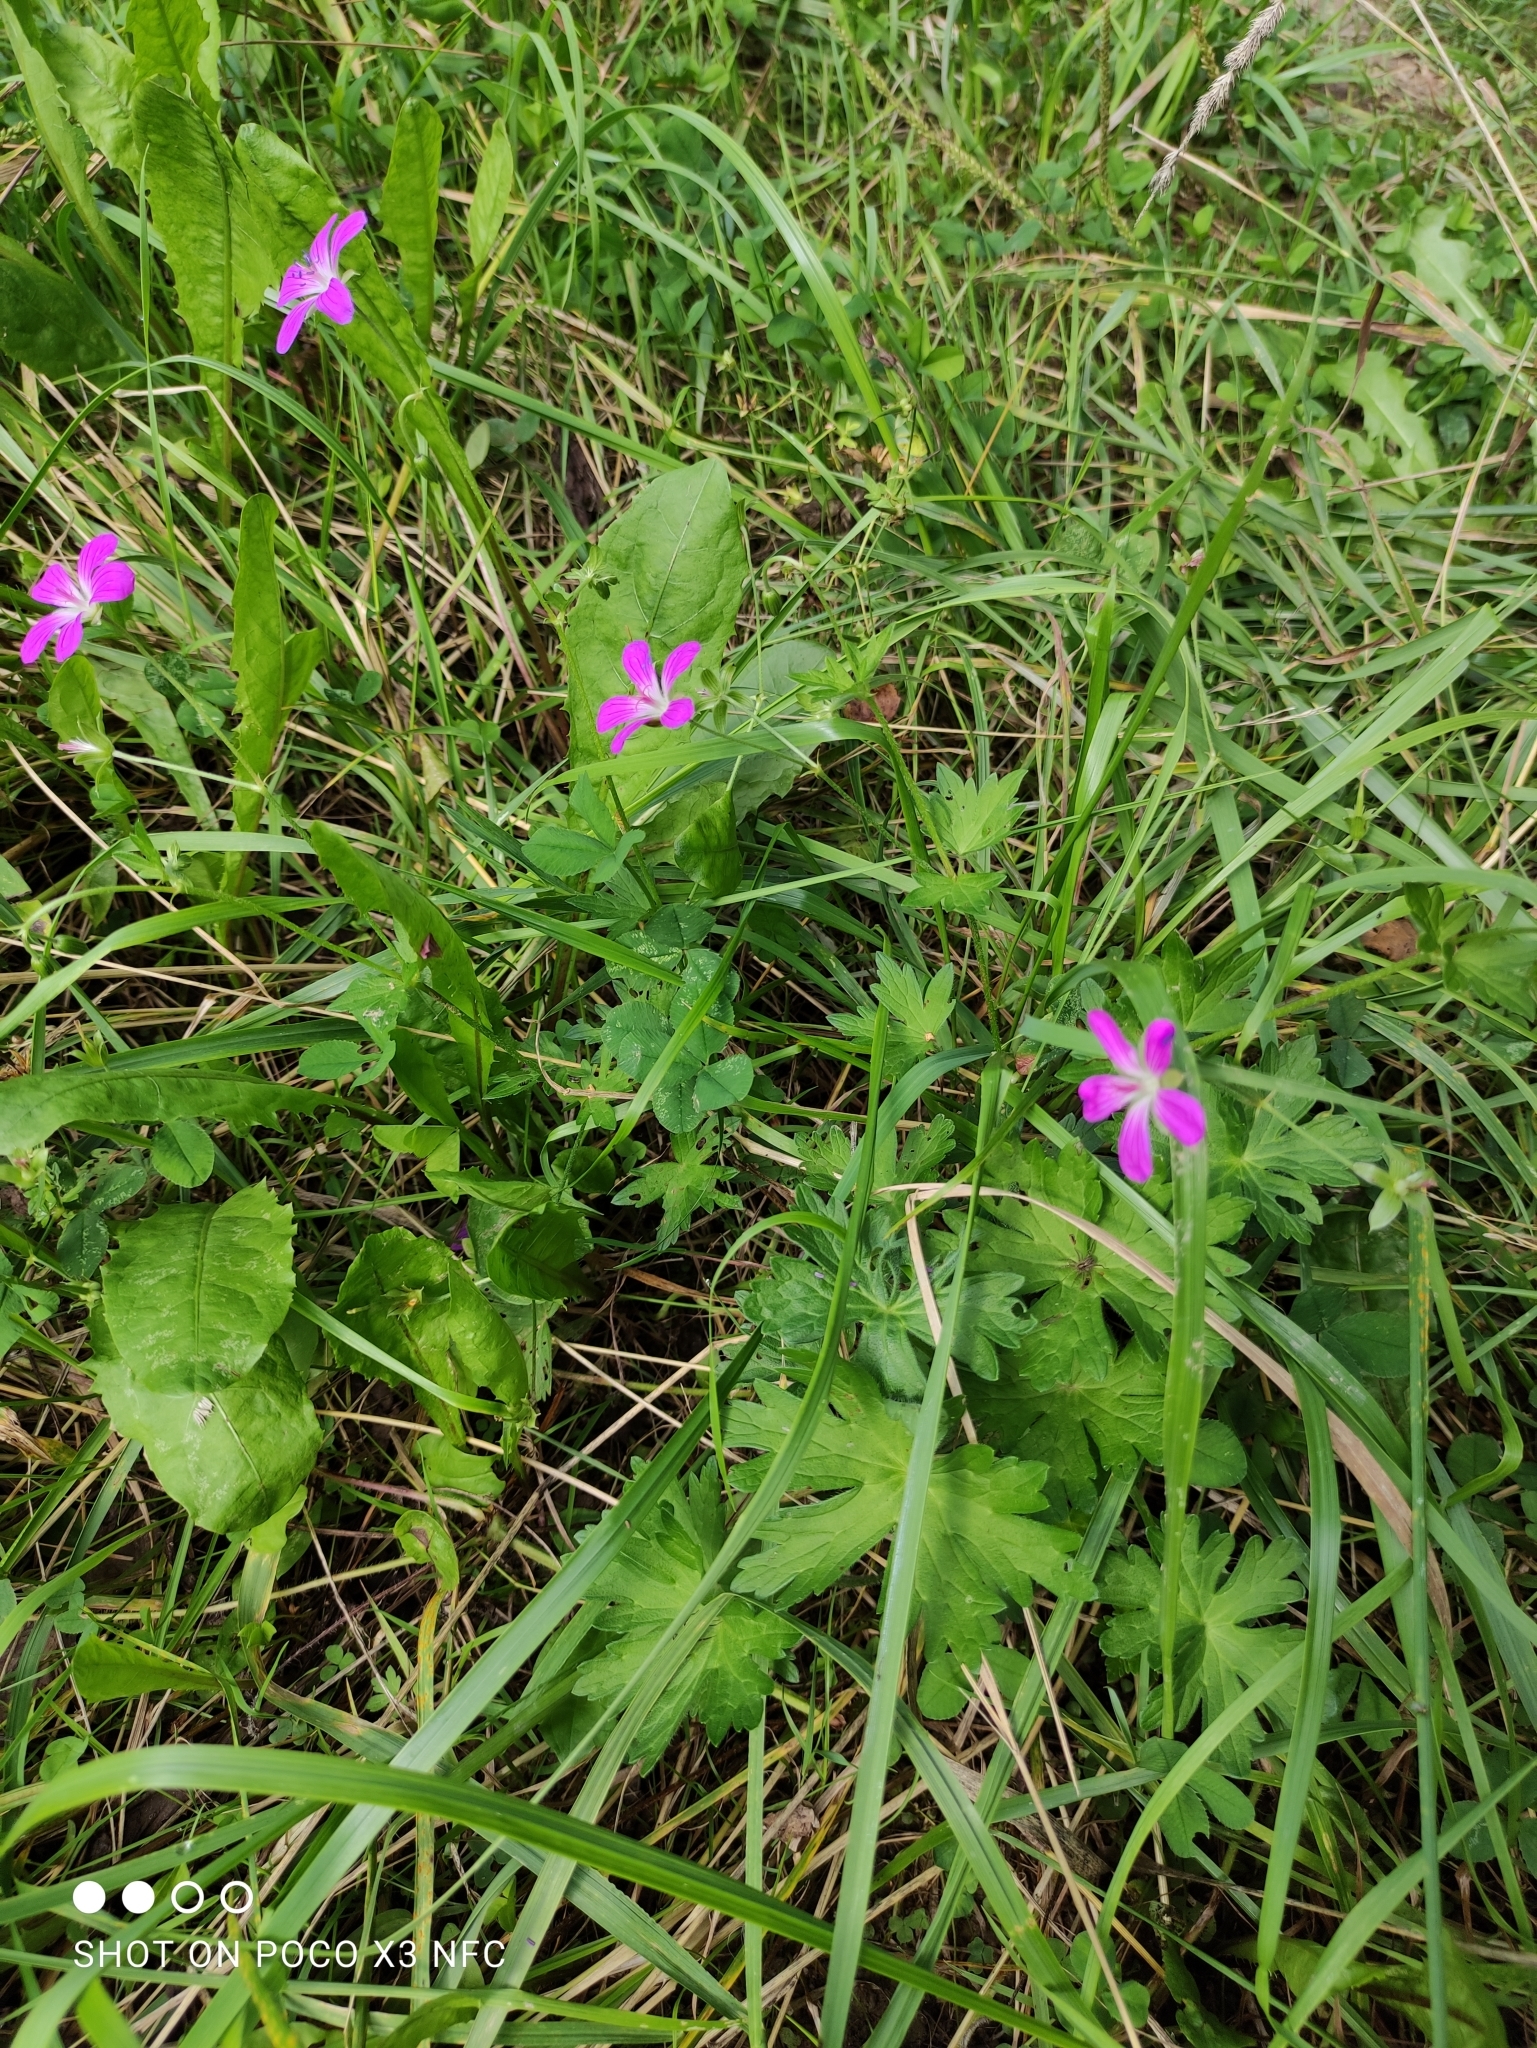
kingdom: Plantae
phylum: Tracheophyta
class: Magnoliopsida
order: Geraniales
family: Geraniaceae
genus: Geranium
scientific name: Geranium palustre
